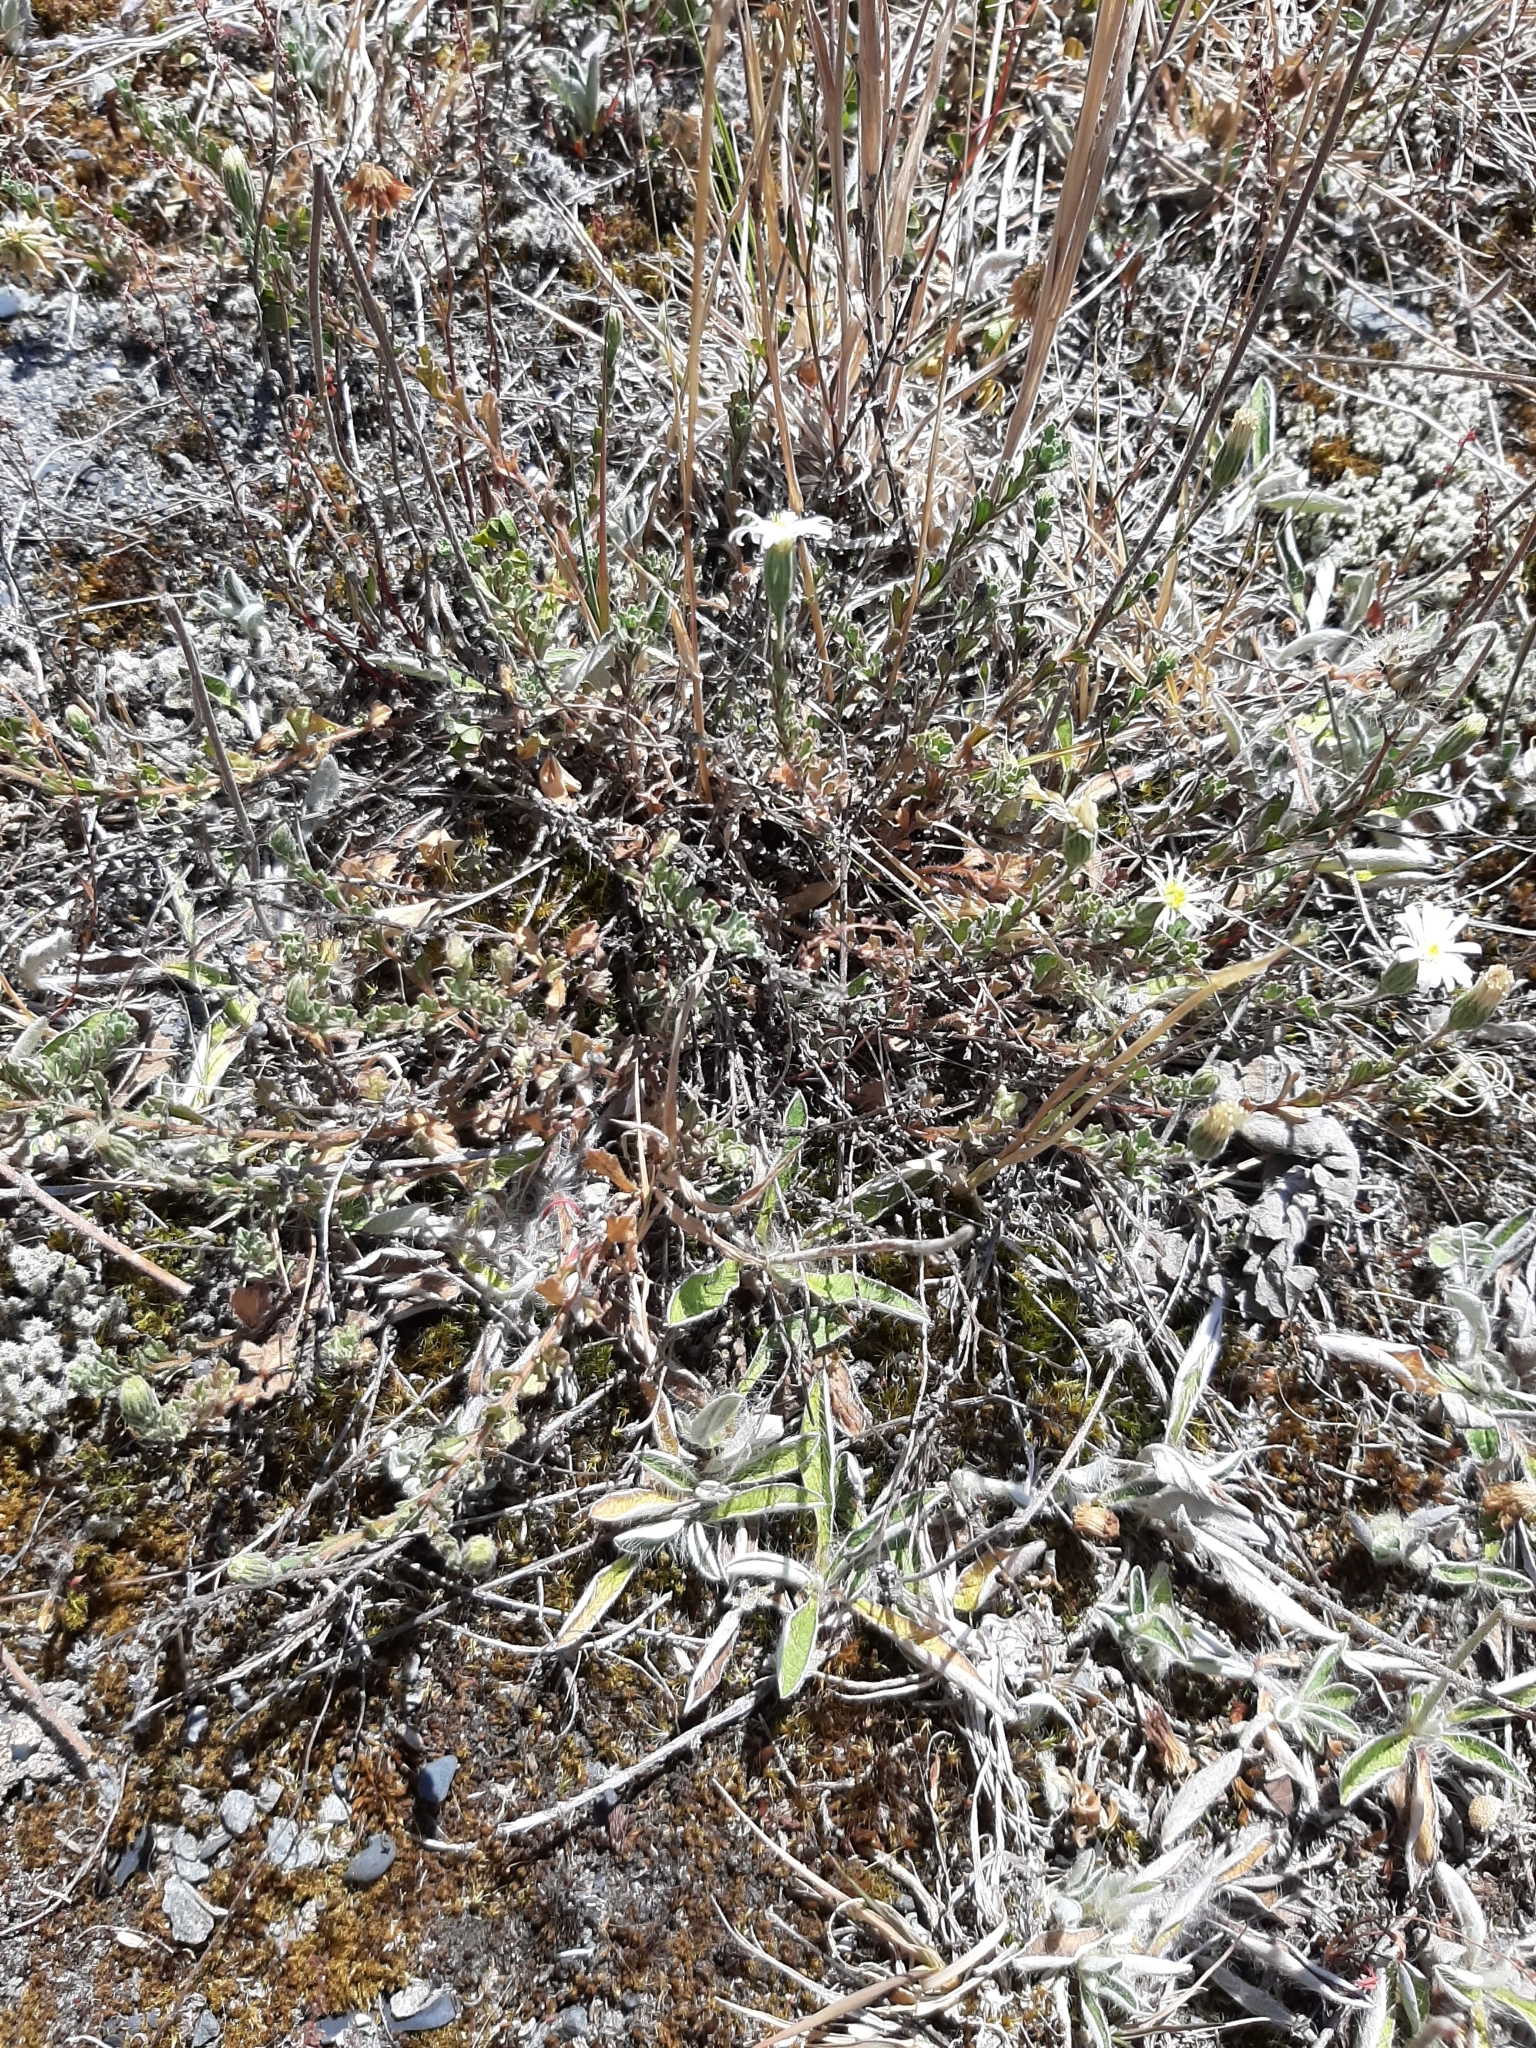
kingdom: Plantae
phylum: Tracheophyta
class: Magnoliopsida
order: Asterales
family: Asteraceae
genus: Vittadinia
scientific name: Vittadinia australis
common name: White fuzzweed
